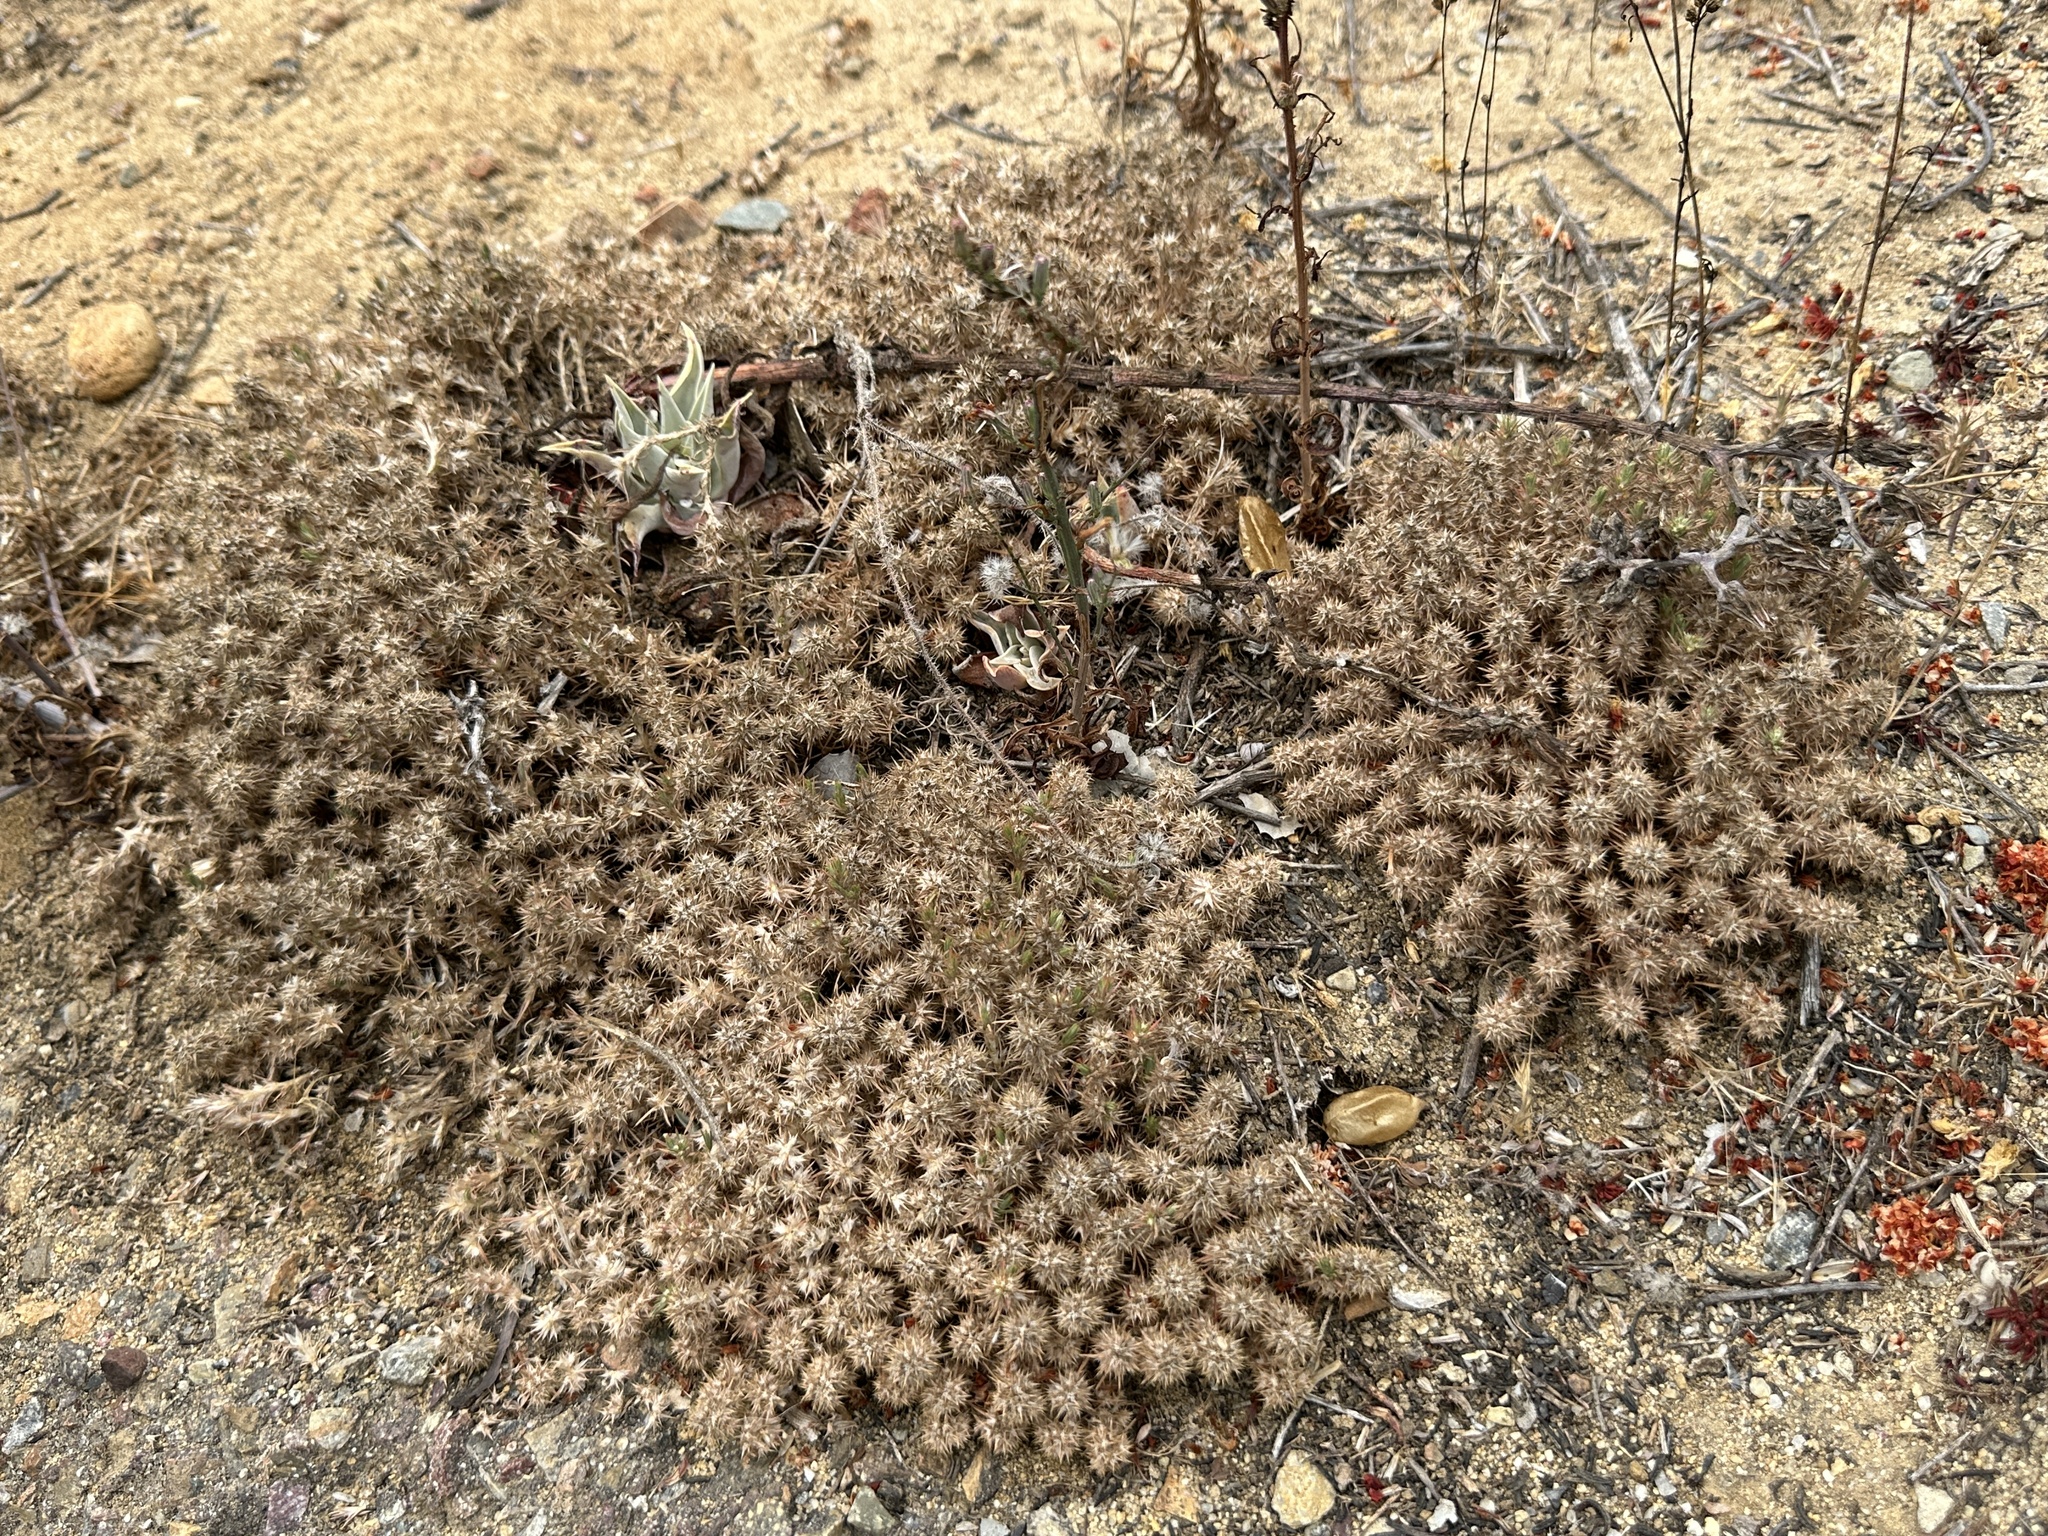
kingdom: Plantae
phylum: Tracheophyta
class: Magnoliopsida
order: Caryophyllales
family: Caryophyllaceae
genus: Cardionema
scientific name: Cardionema ramosissima
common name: Sandcarpet
